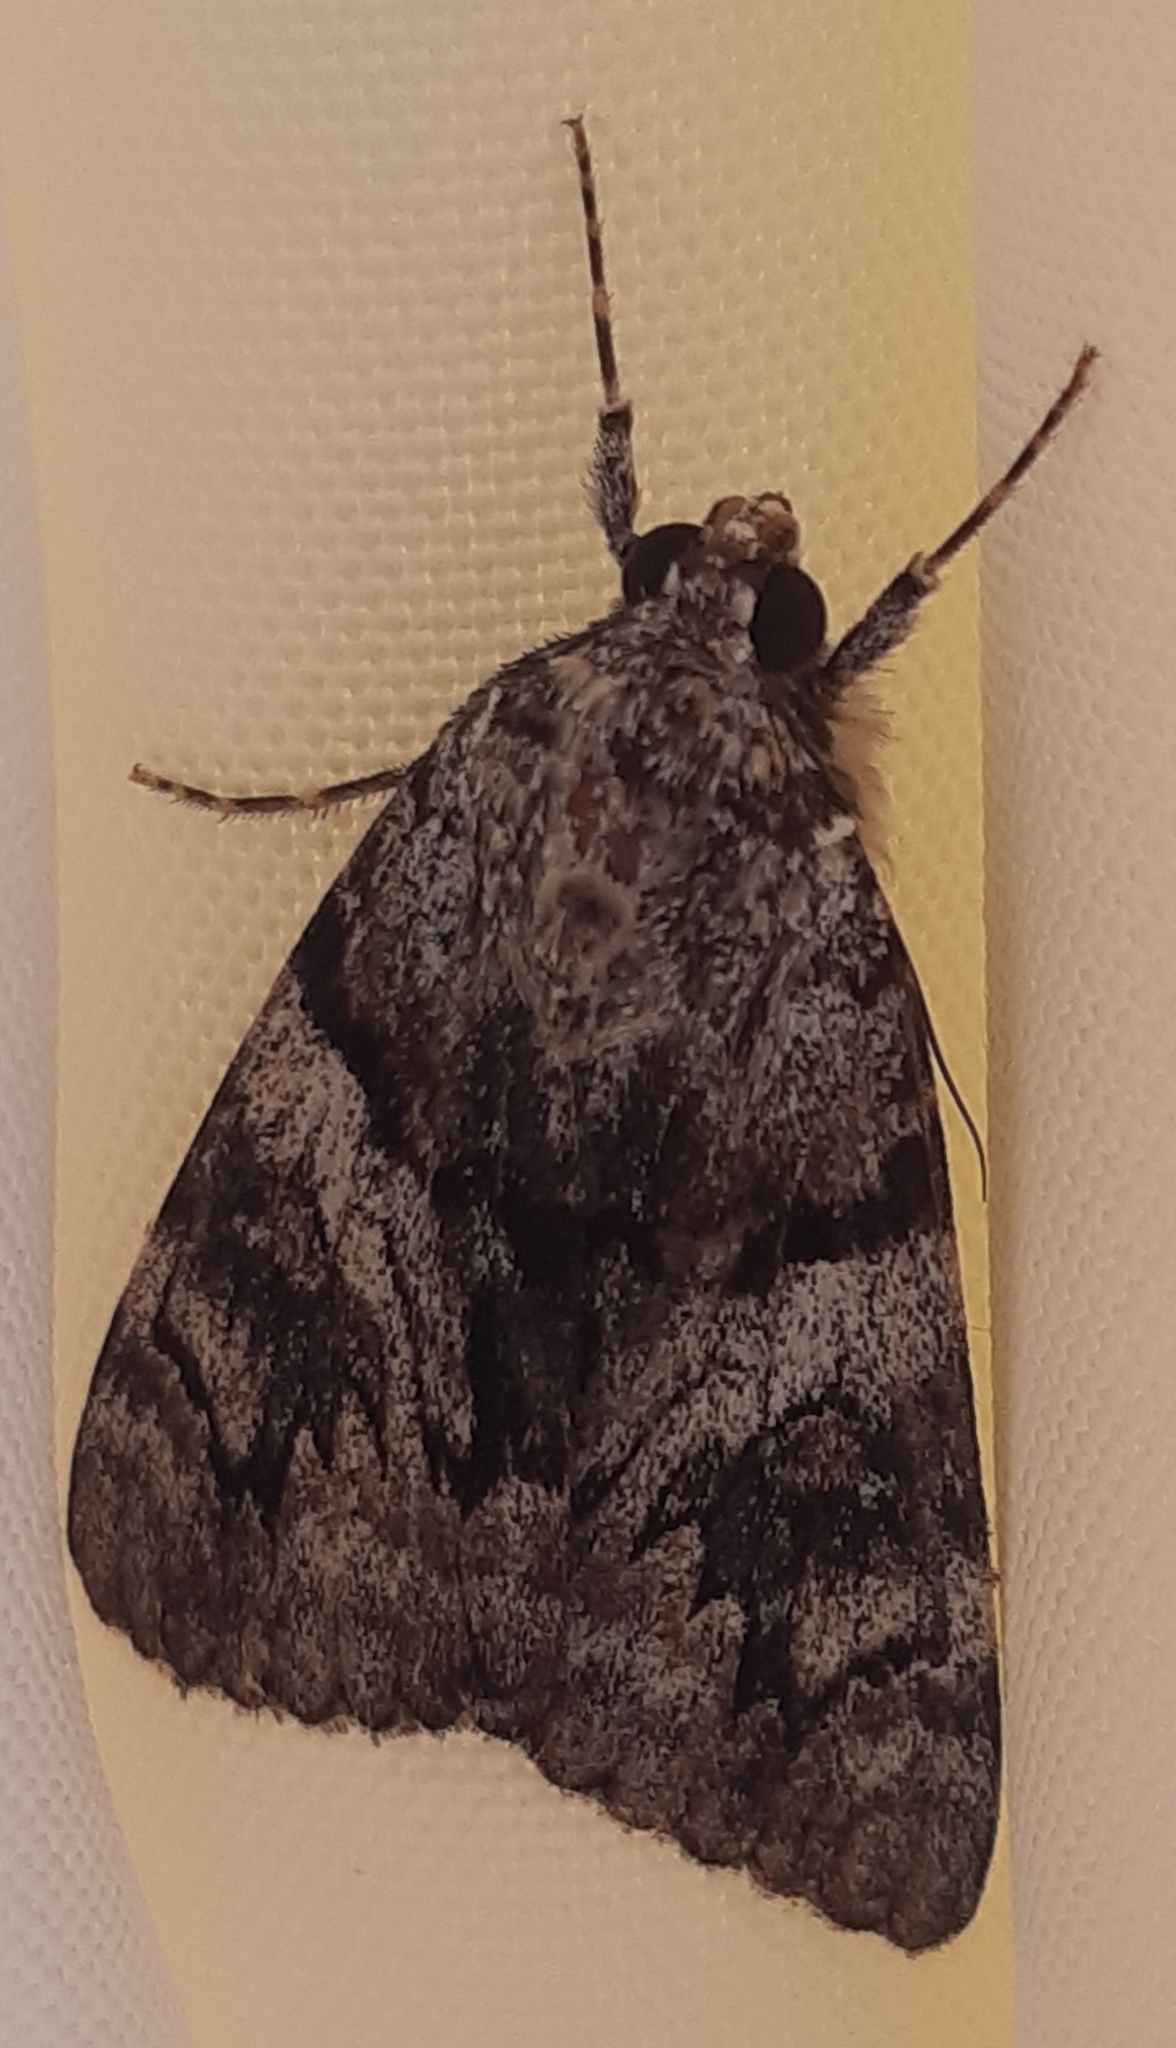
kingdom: Animalia
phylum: Arthropoda
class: Insecta
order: Lepidoptera
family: Erebidae
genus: Catocala
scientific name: Catocala conversa
